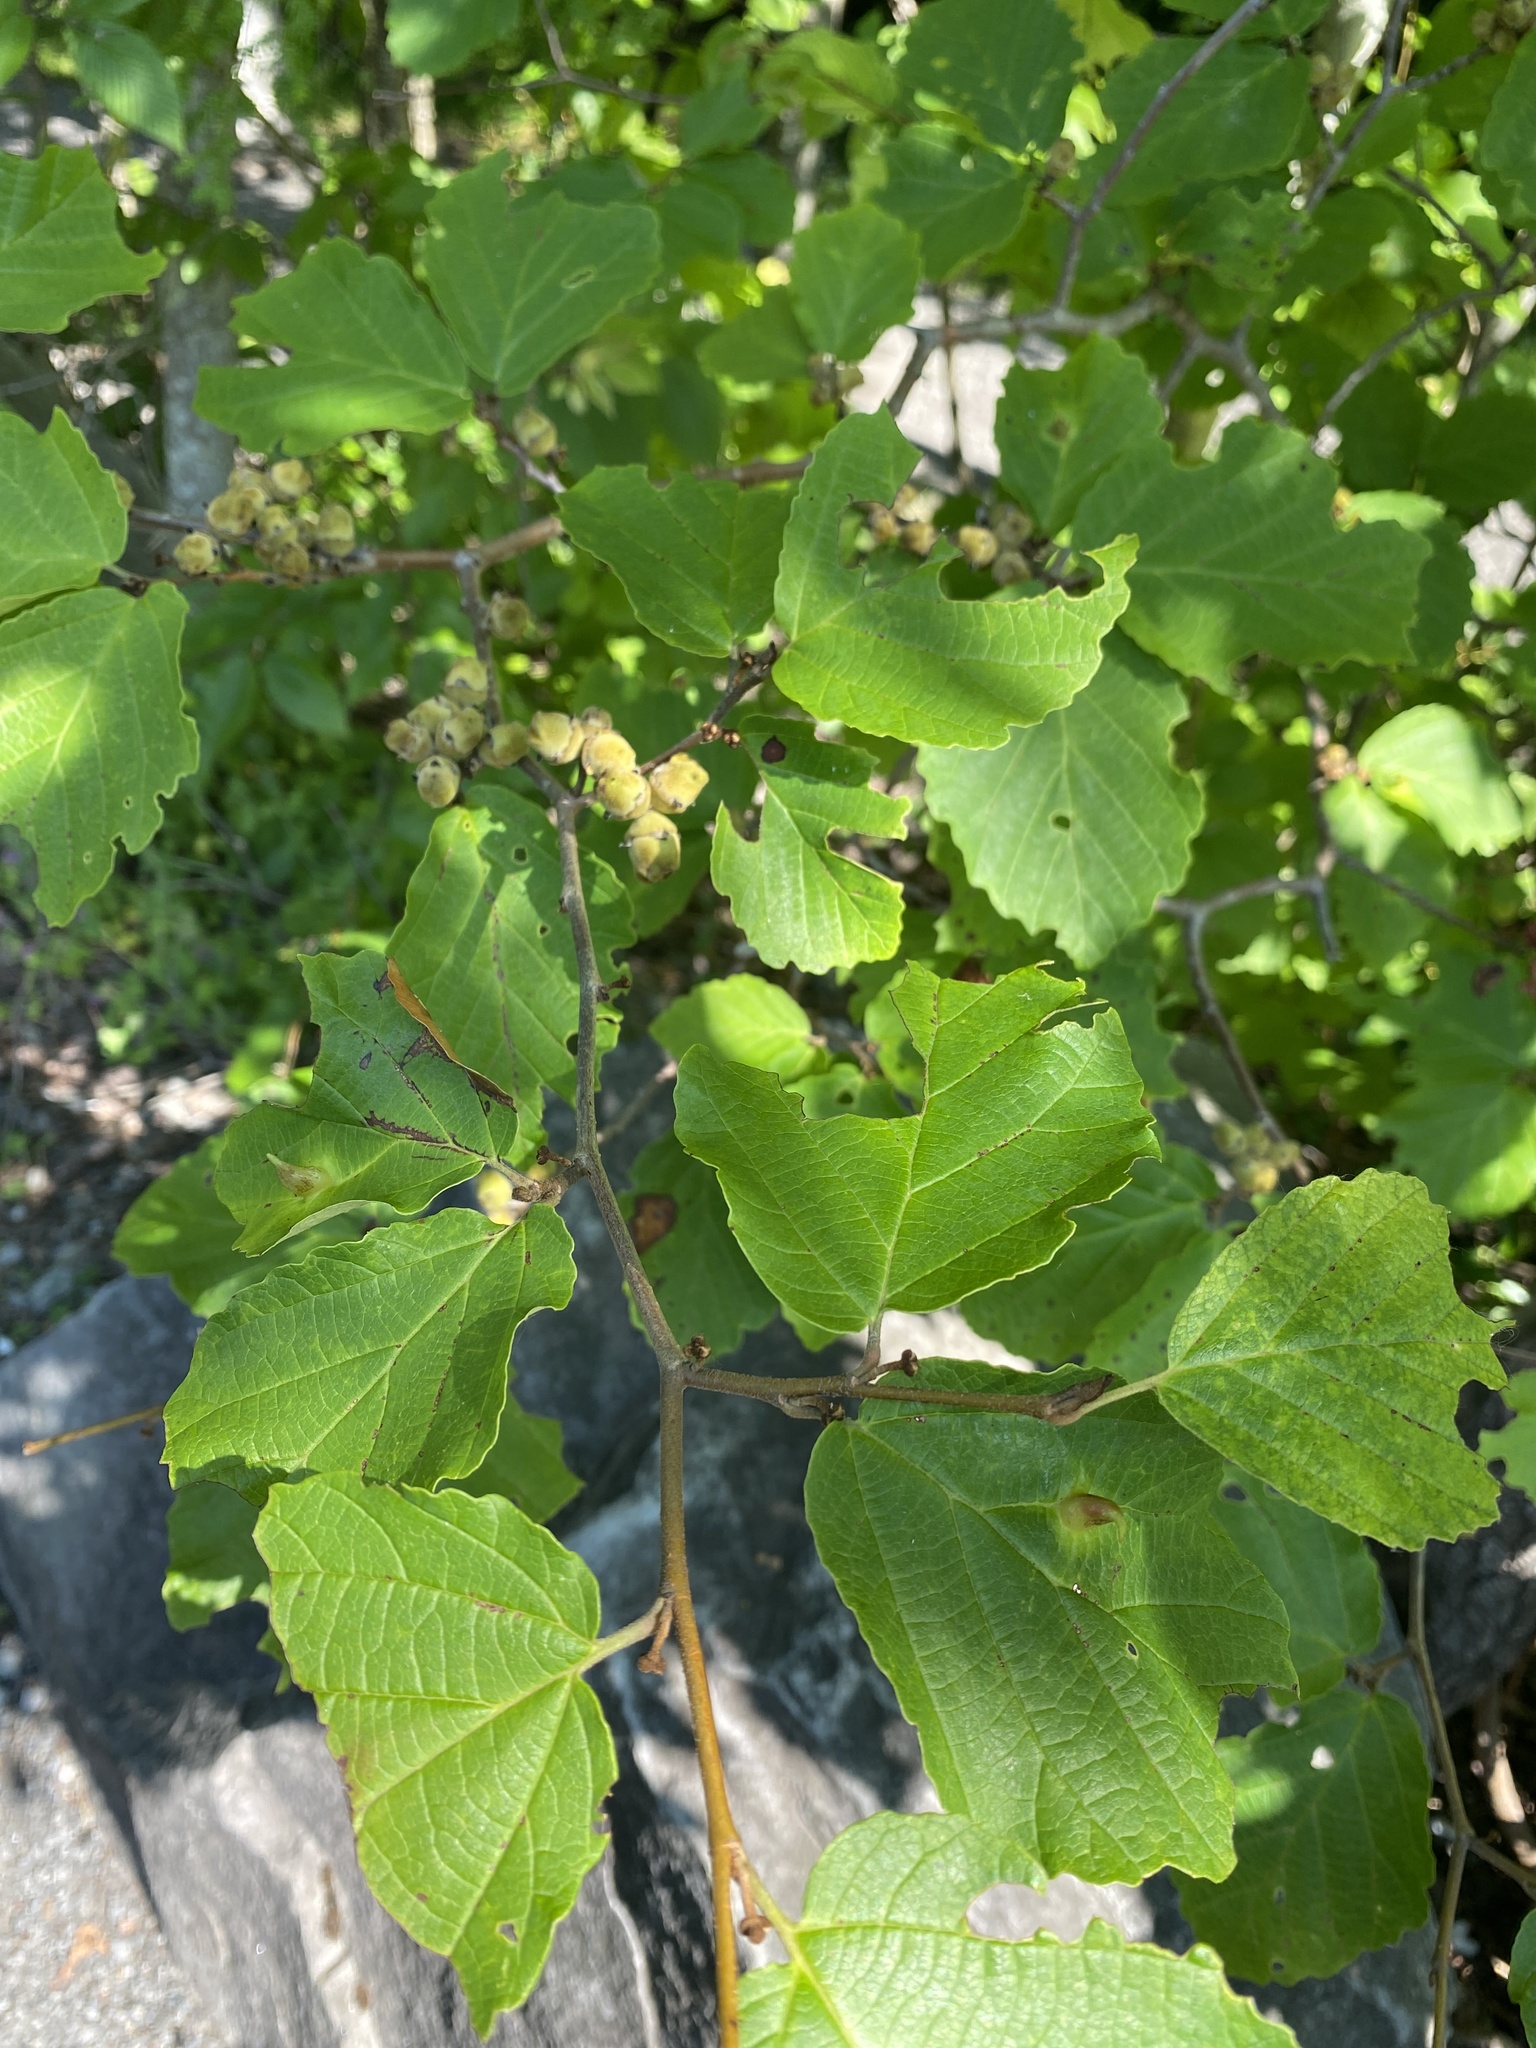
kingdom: Plantae
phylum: Tracheophyta
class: Magnoliopsida
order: Saxifragales
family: Hamamelidaceae
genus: Hamamelis
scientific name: Hamamelis virginiana
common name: Witch-hazel
